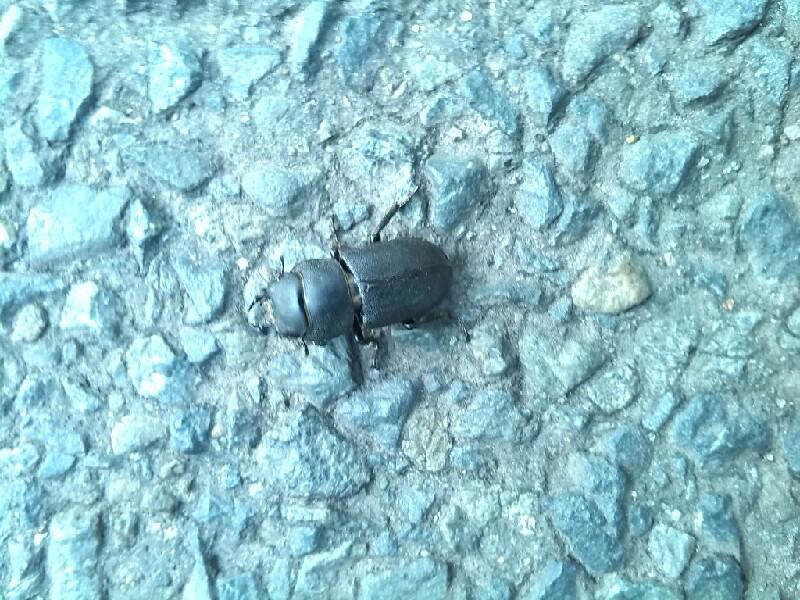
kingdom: Animalia
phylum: Arthropoda
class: Insecta
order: Coleoptera
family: Lucanidae
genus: Dorcus
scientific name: Dorcus parallelipipedus
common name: Lesser stag beetle
